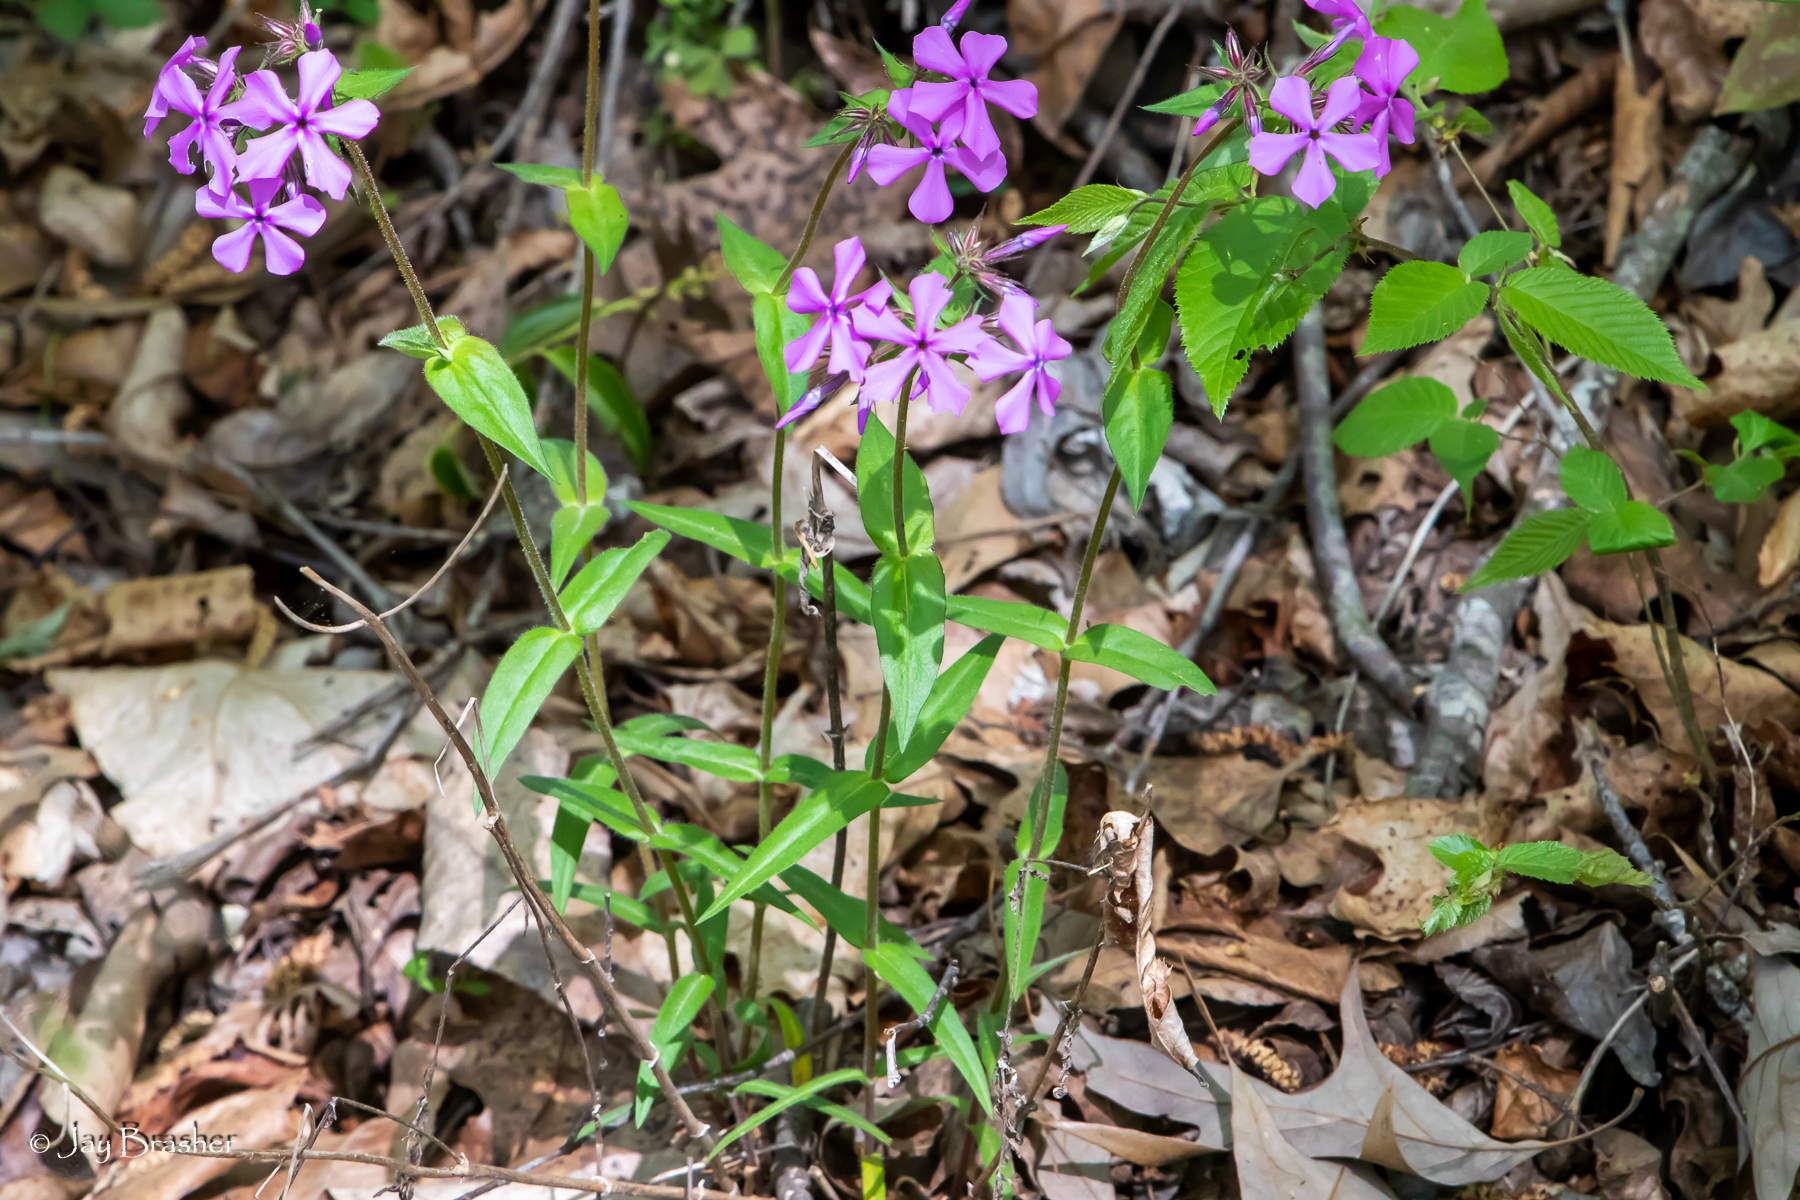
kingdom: Plantae
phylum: Tracheophyta
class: Magnoliopsida
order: Ericales
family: Polemoniaceae
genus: Phlox
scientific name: Phlox pilosa
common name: Prairie phlox
